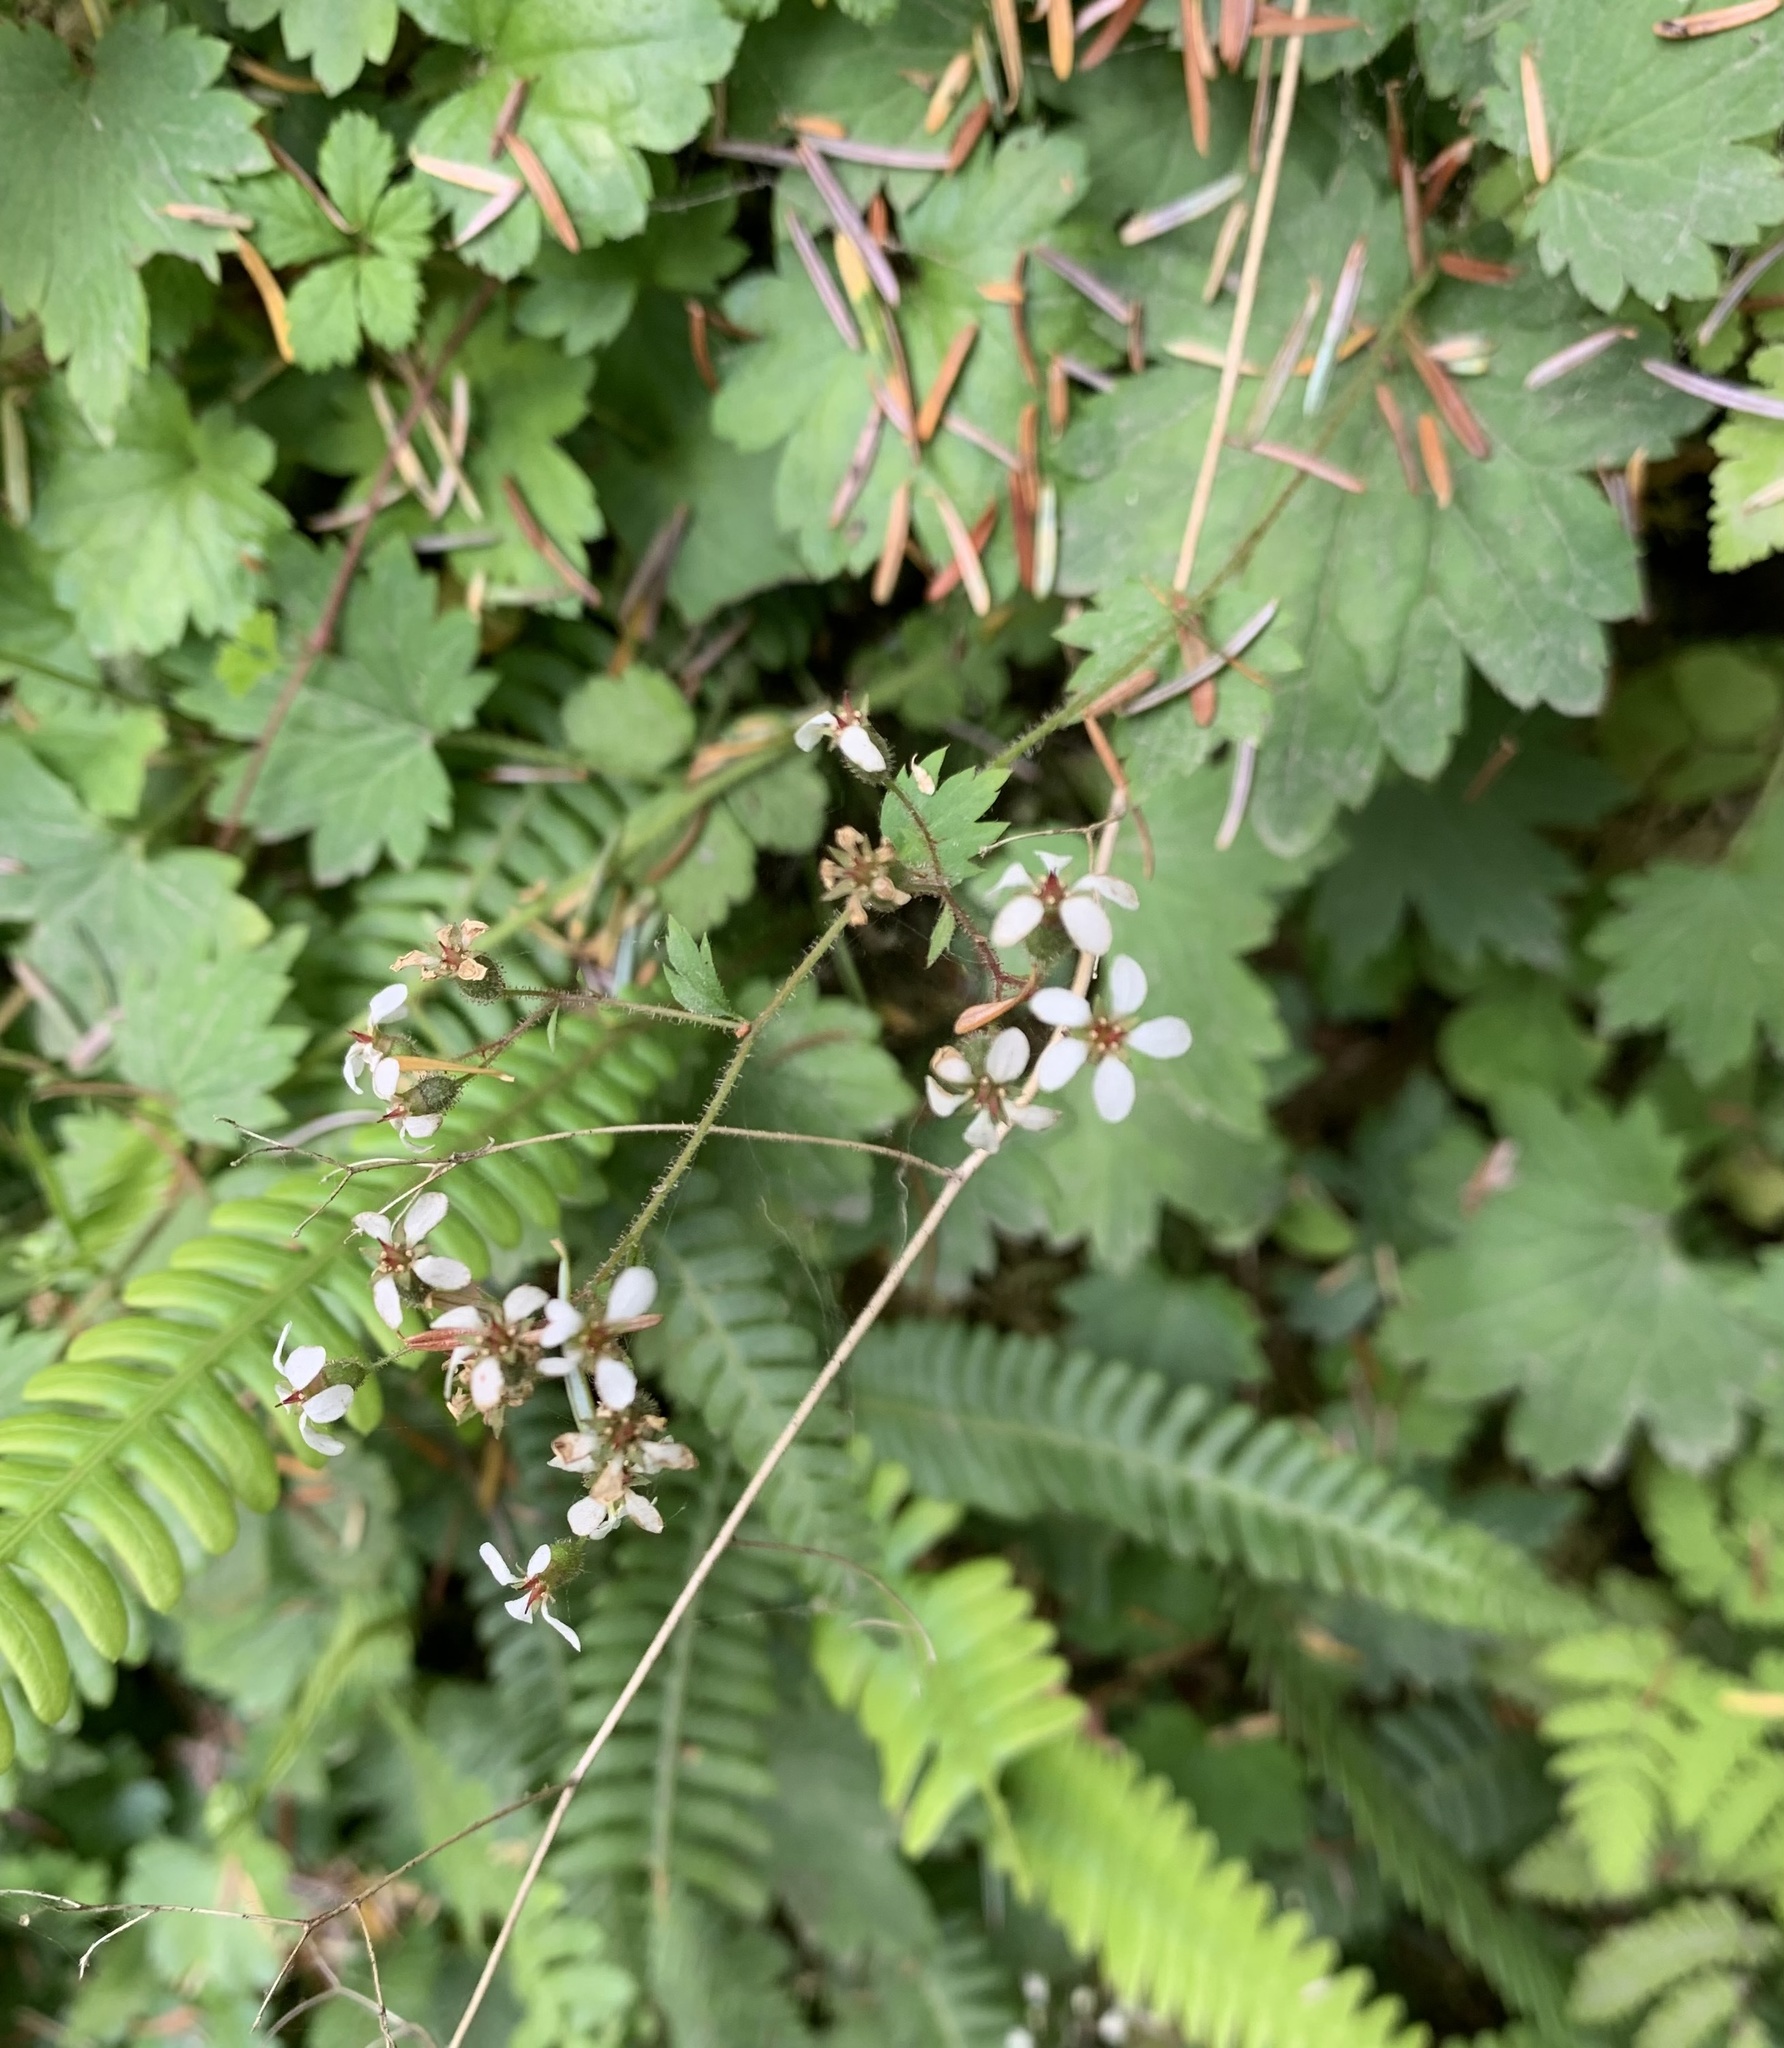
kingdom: Plantae
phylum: Tracheophyta
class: Magnoliopsida
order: Saxifragales
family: Saxifragaceae
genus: Boykinia
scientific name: Boykinia occidentalis
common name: Coast boykinia
